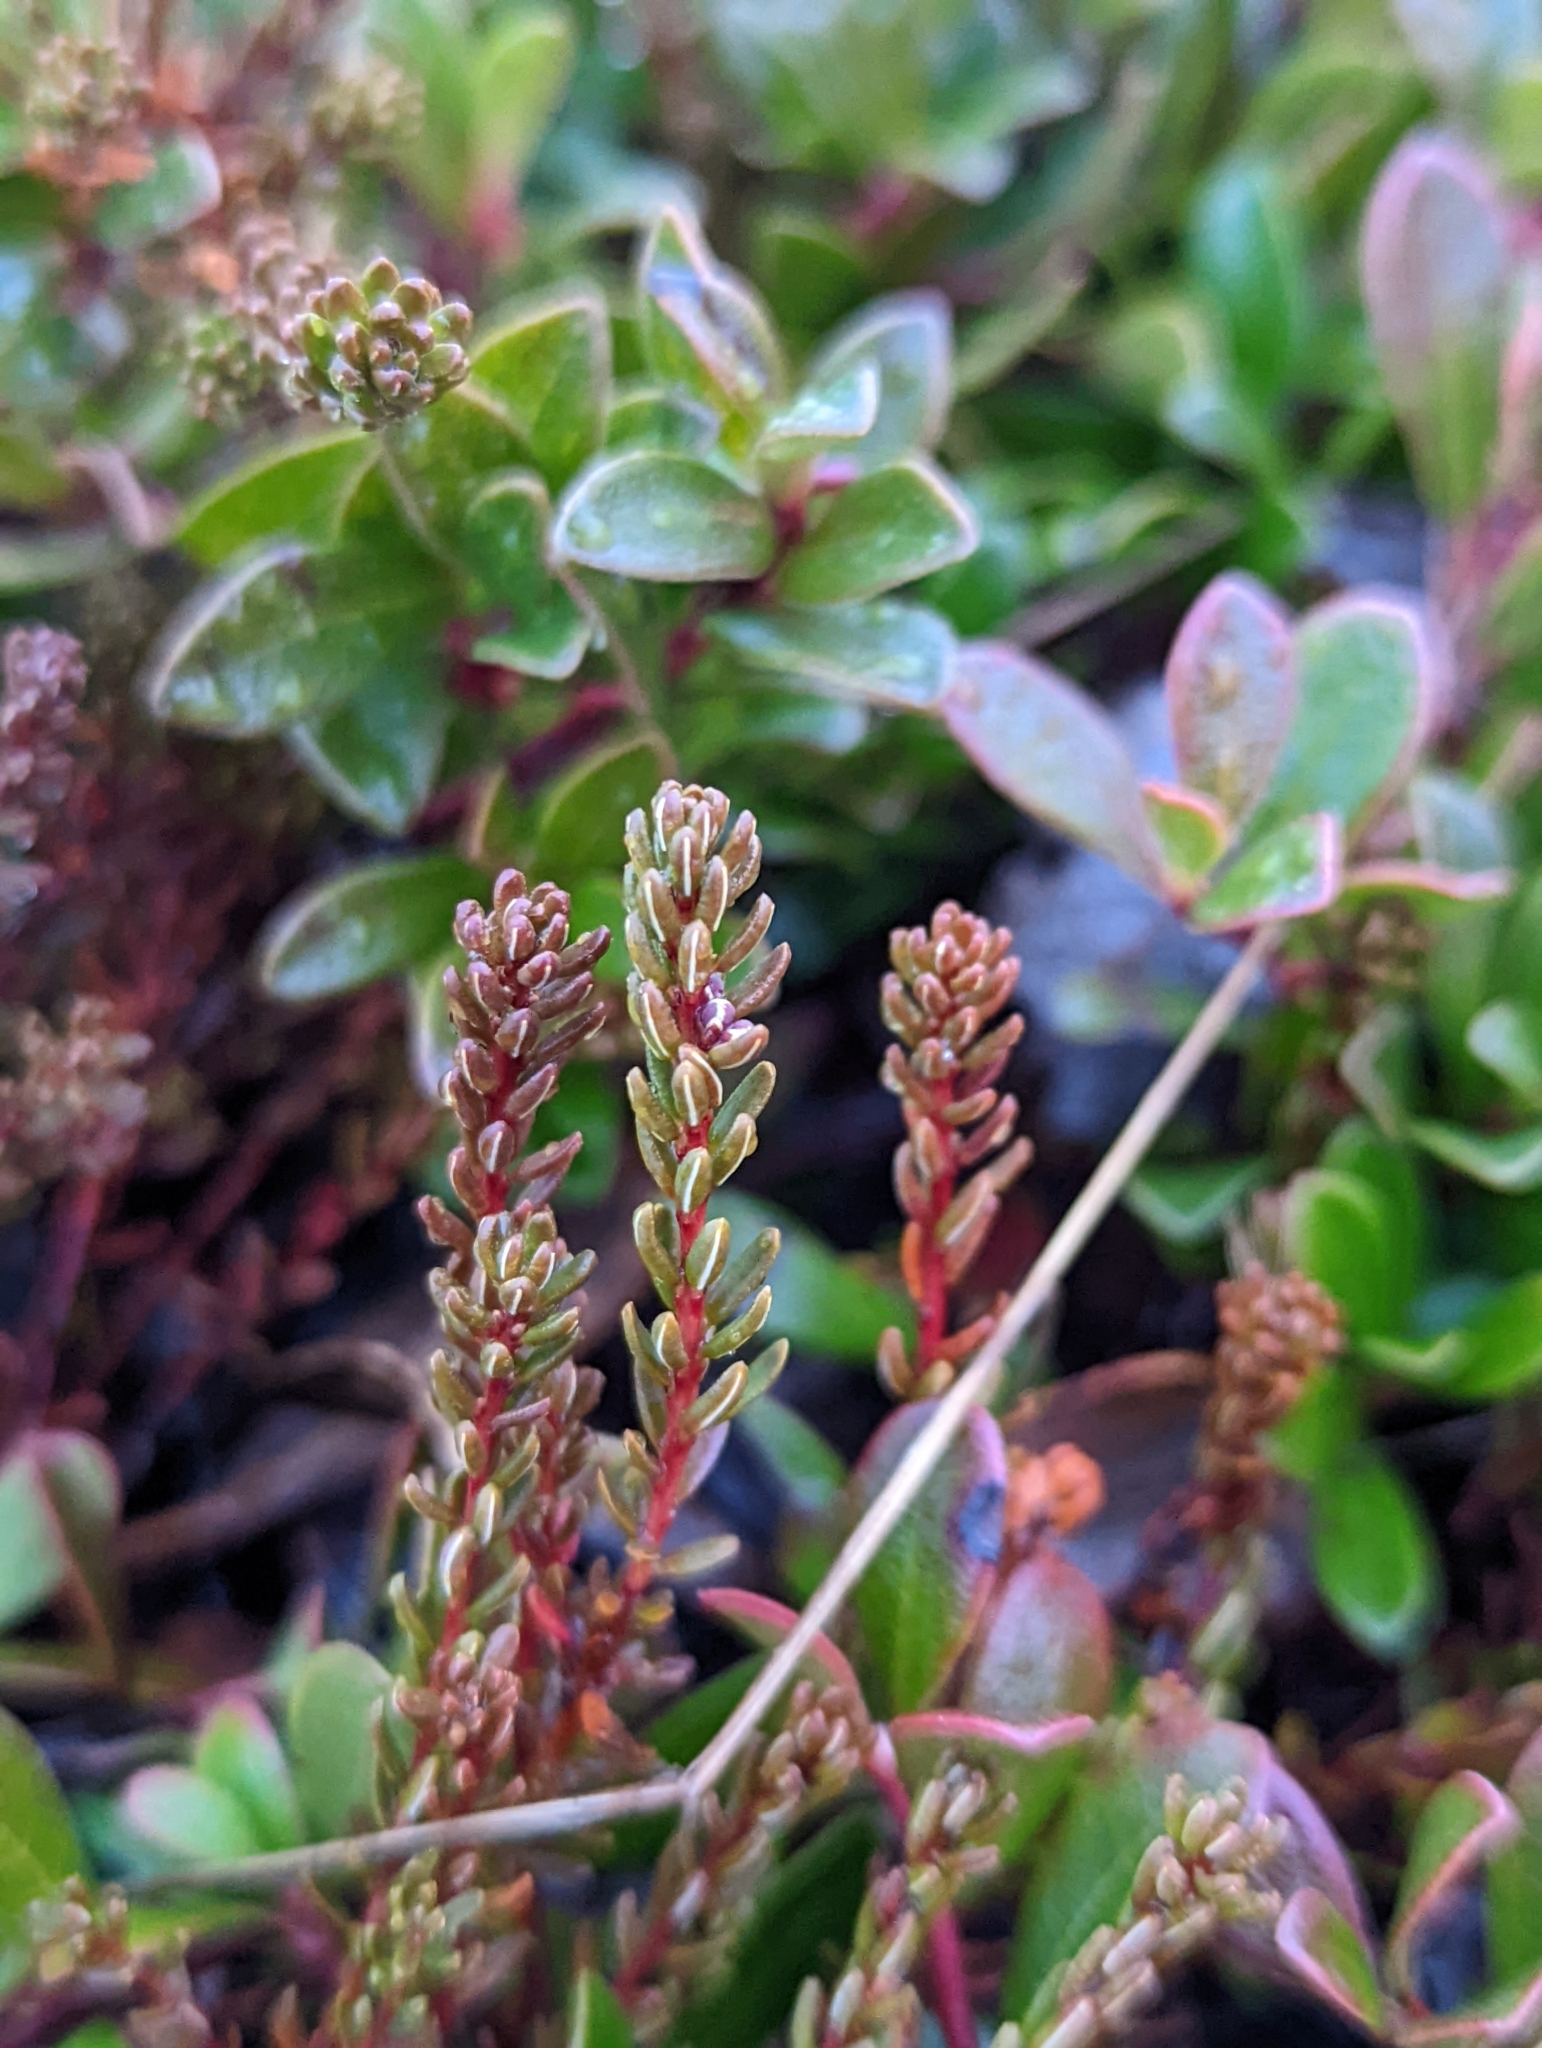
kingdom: Plantae
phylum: Tracheophyta
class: Magnoliopsida
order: Ericales
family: Ericaceae
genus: Empetrum
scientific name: Empetrum nigrum
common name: Black crowberry
